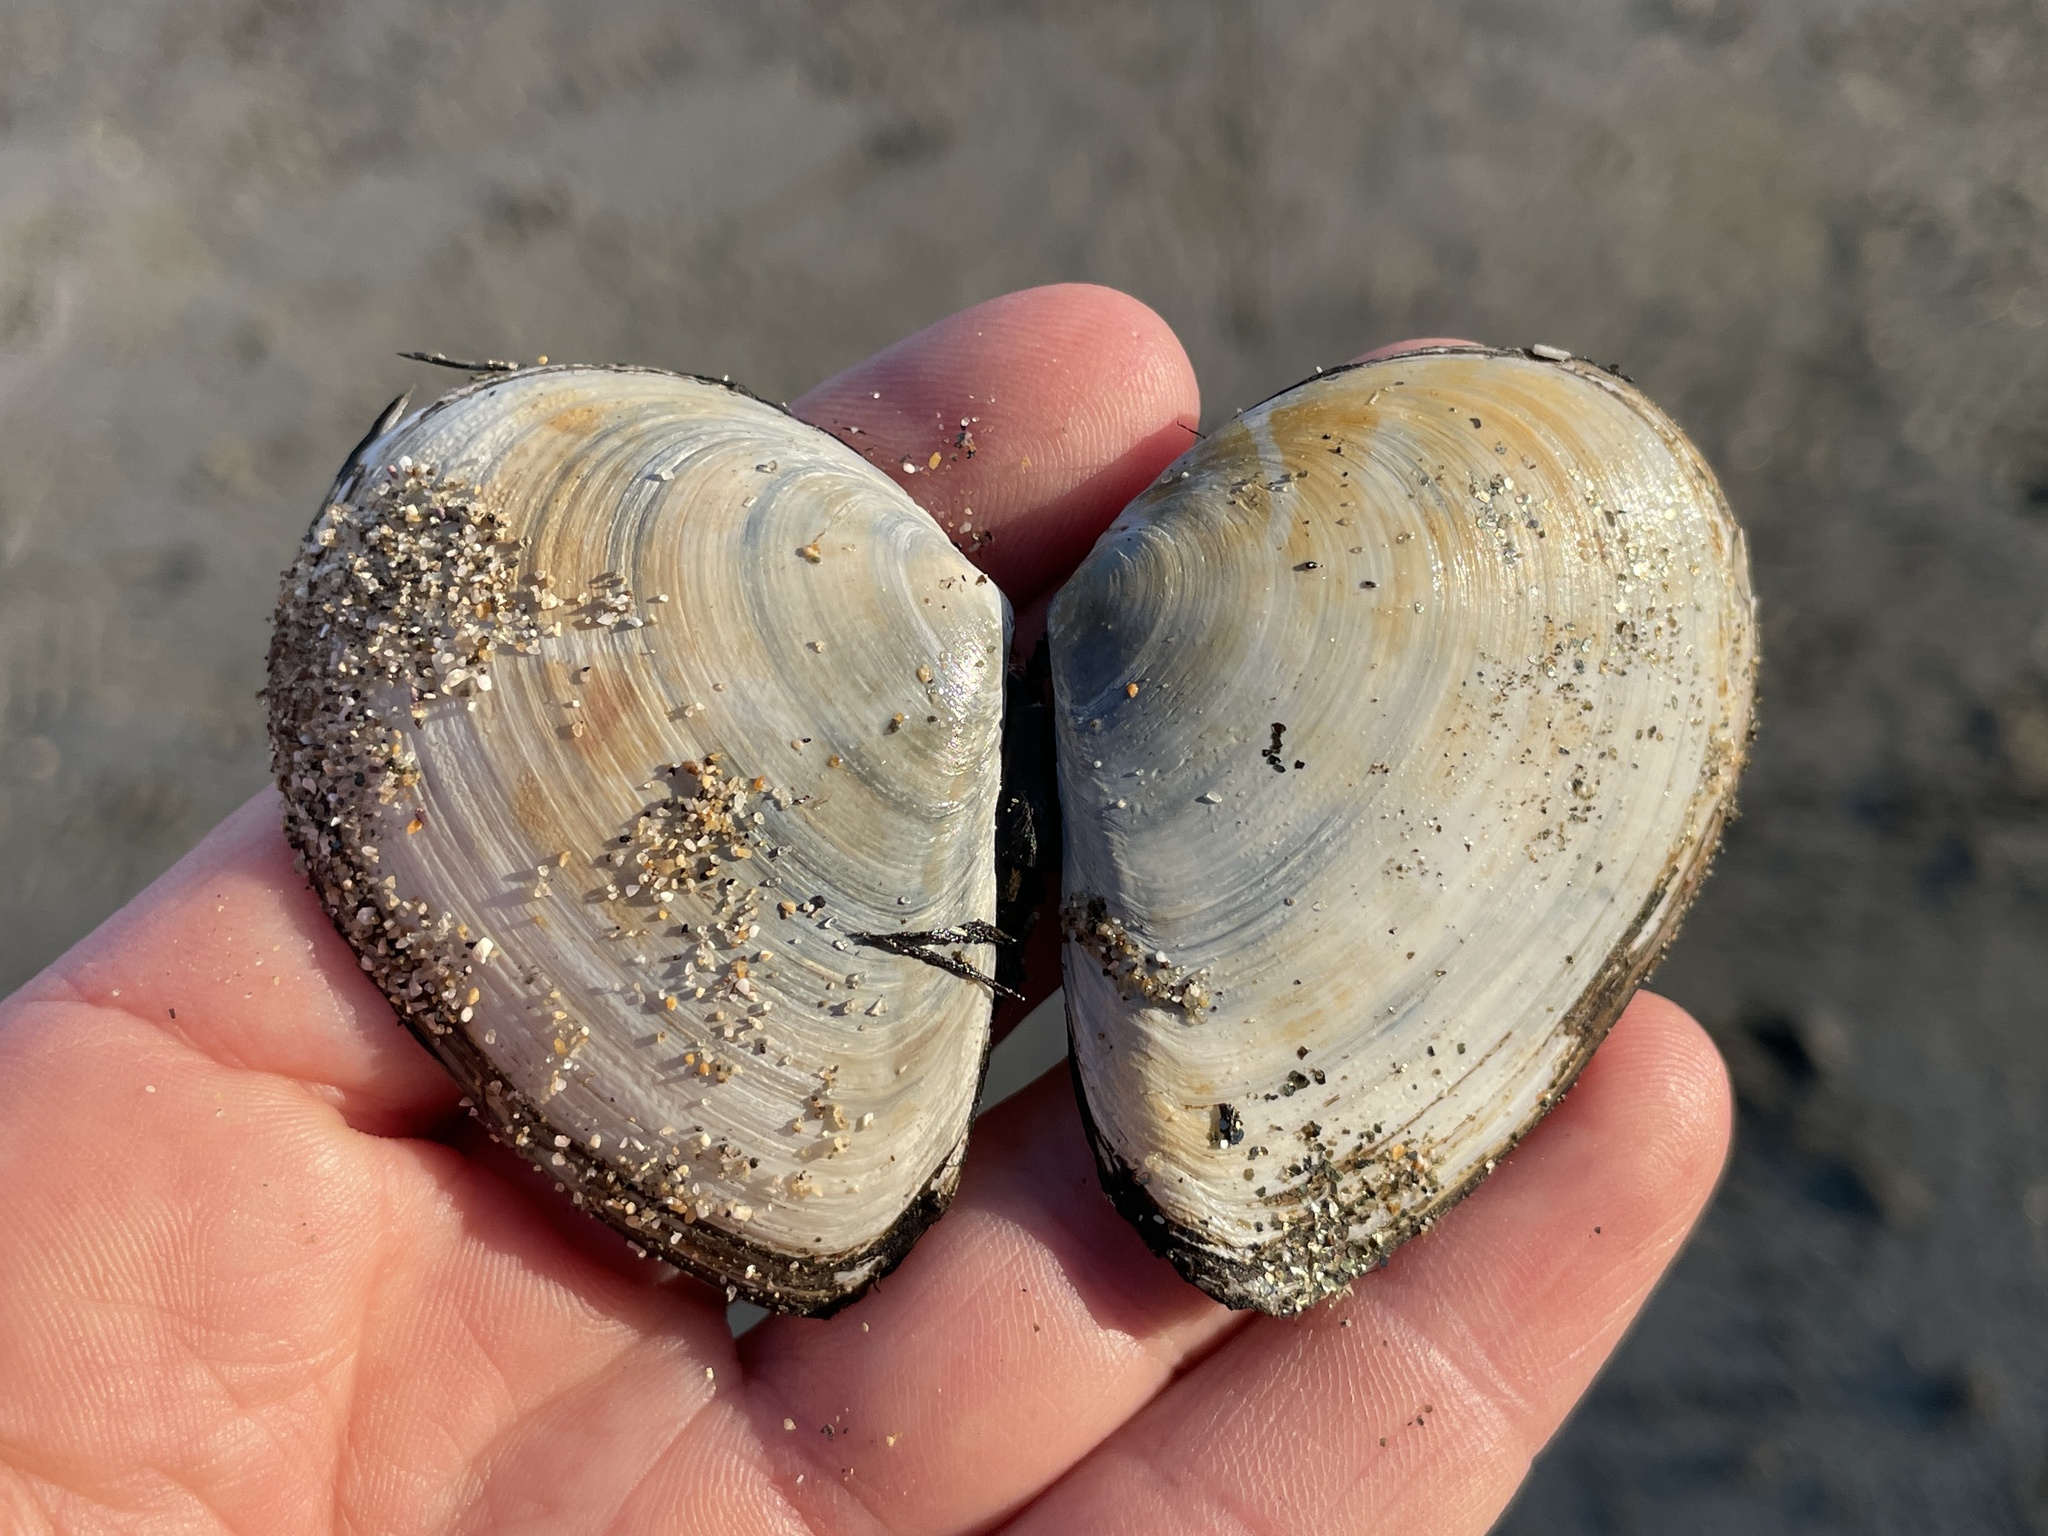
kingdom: Animalia
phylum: Mollusca
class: Bivalvia
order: Cardiida
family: Tellinidae
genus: Macoma
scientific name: Macoma nasuta
